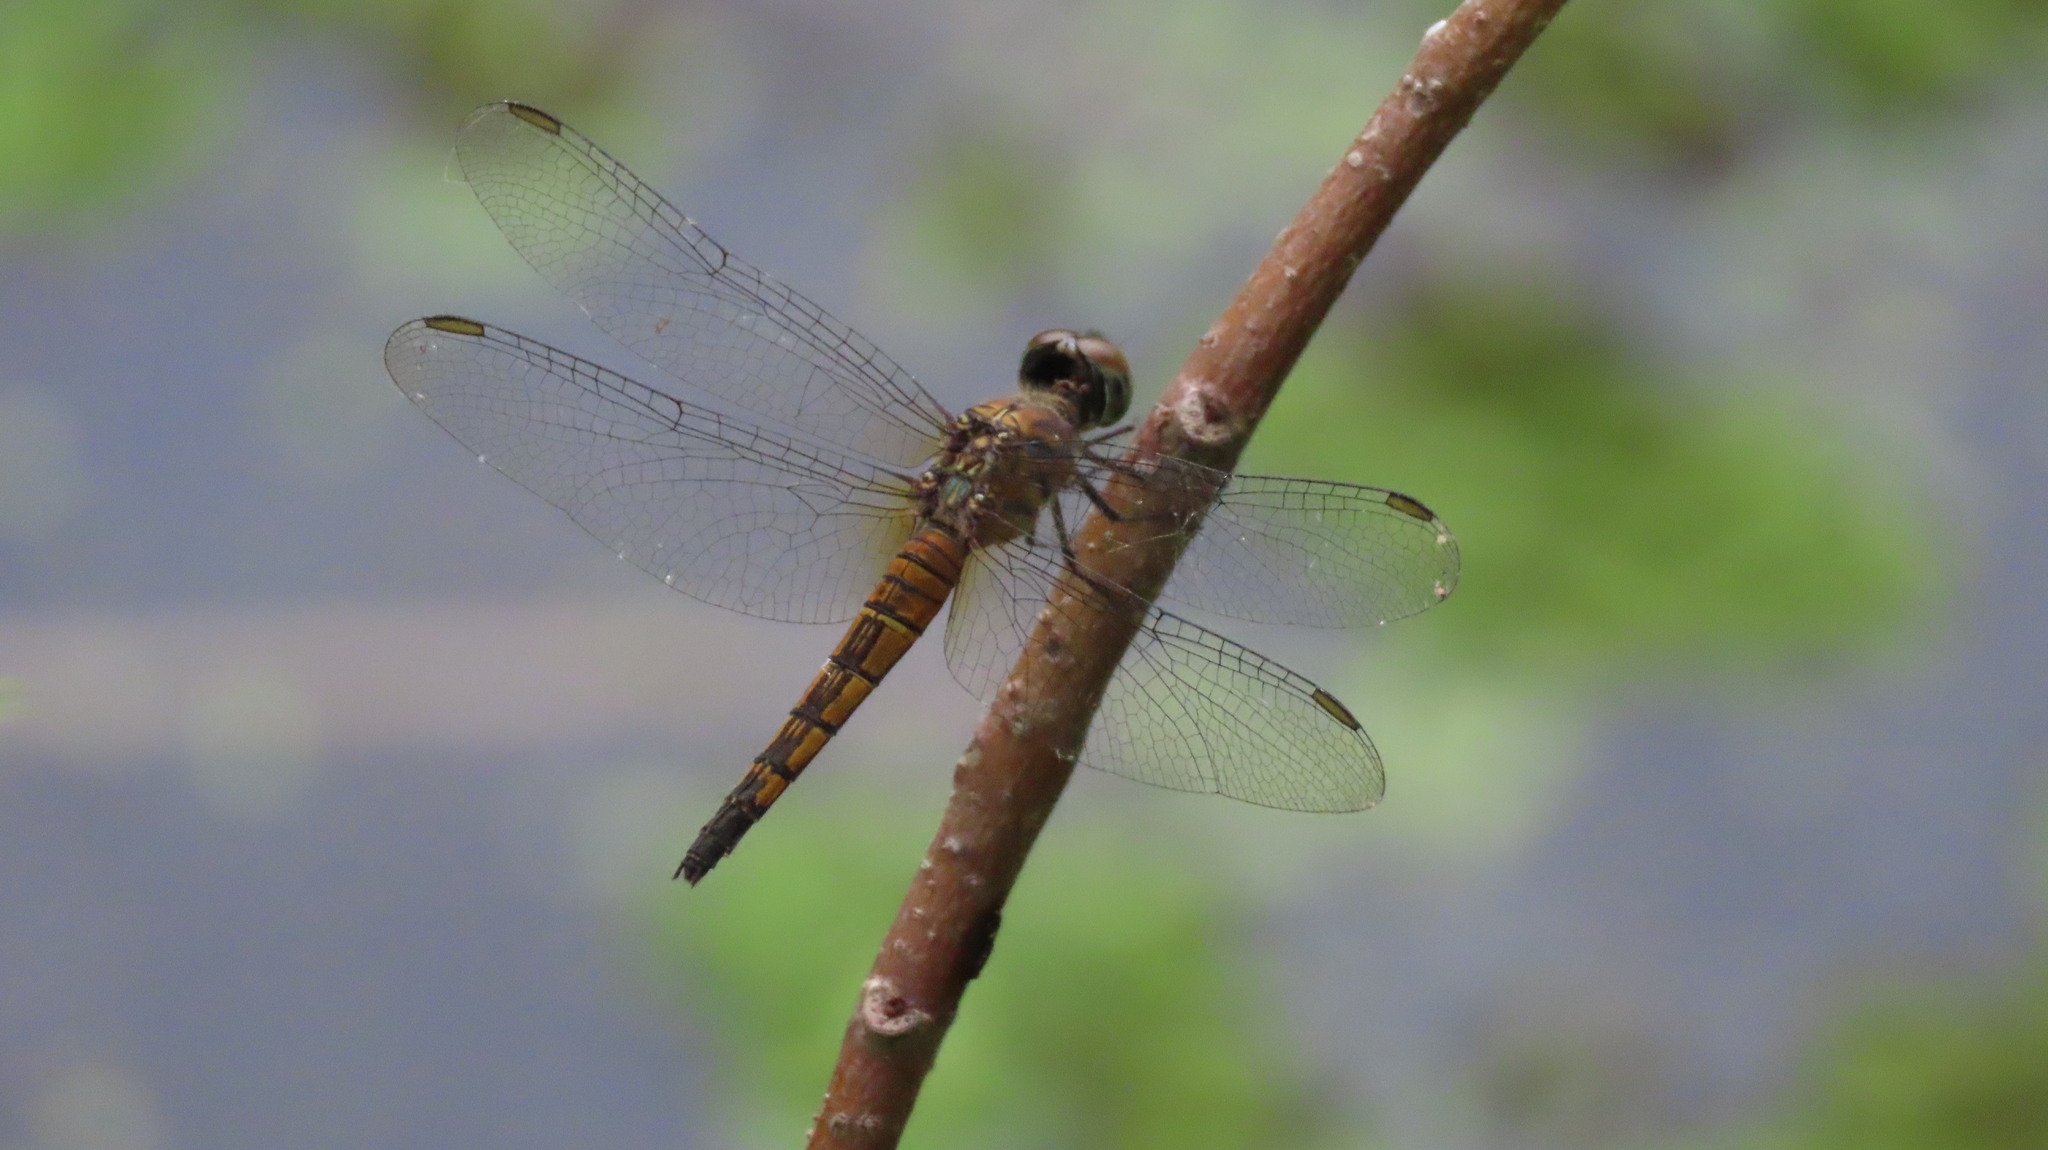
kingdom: Animalia
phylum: Arthropoda
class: Insecta
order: Odonata
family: Libellulidae
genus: Brachydiplax
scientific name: Brachydiplax chalybea
